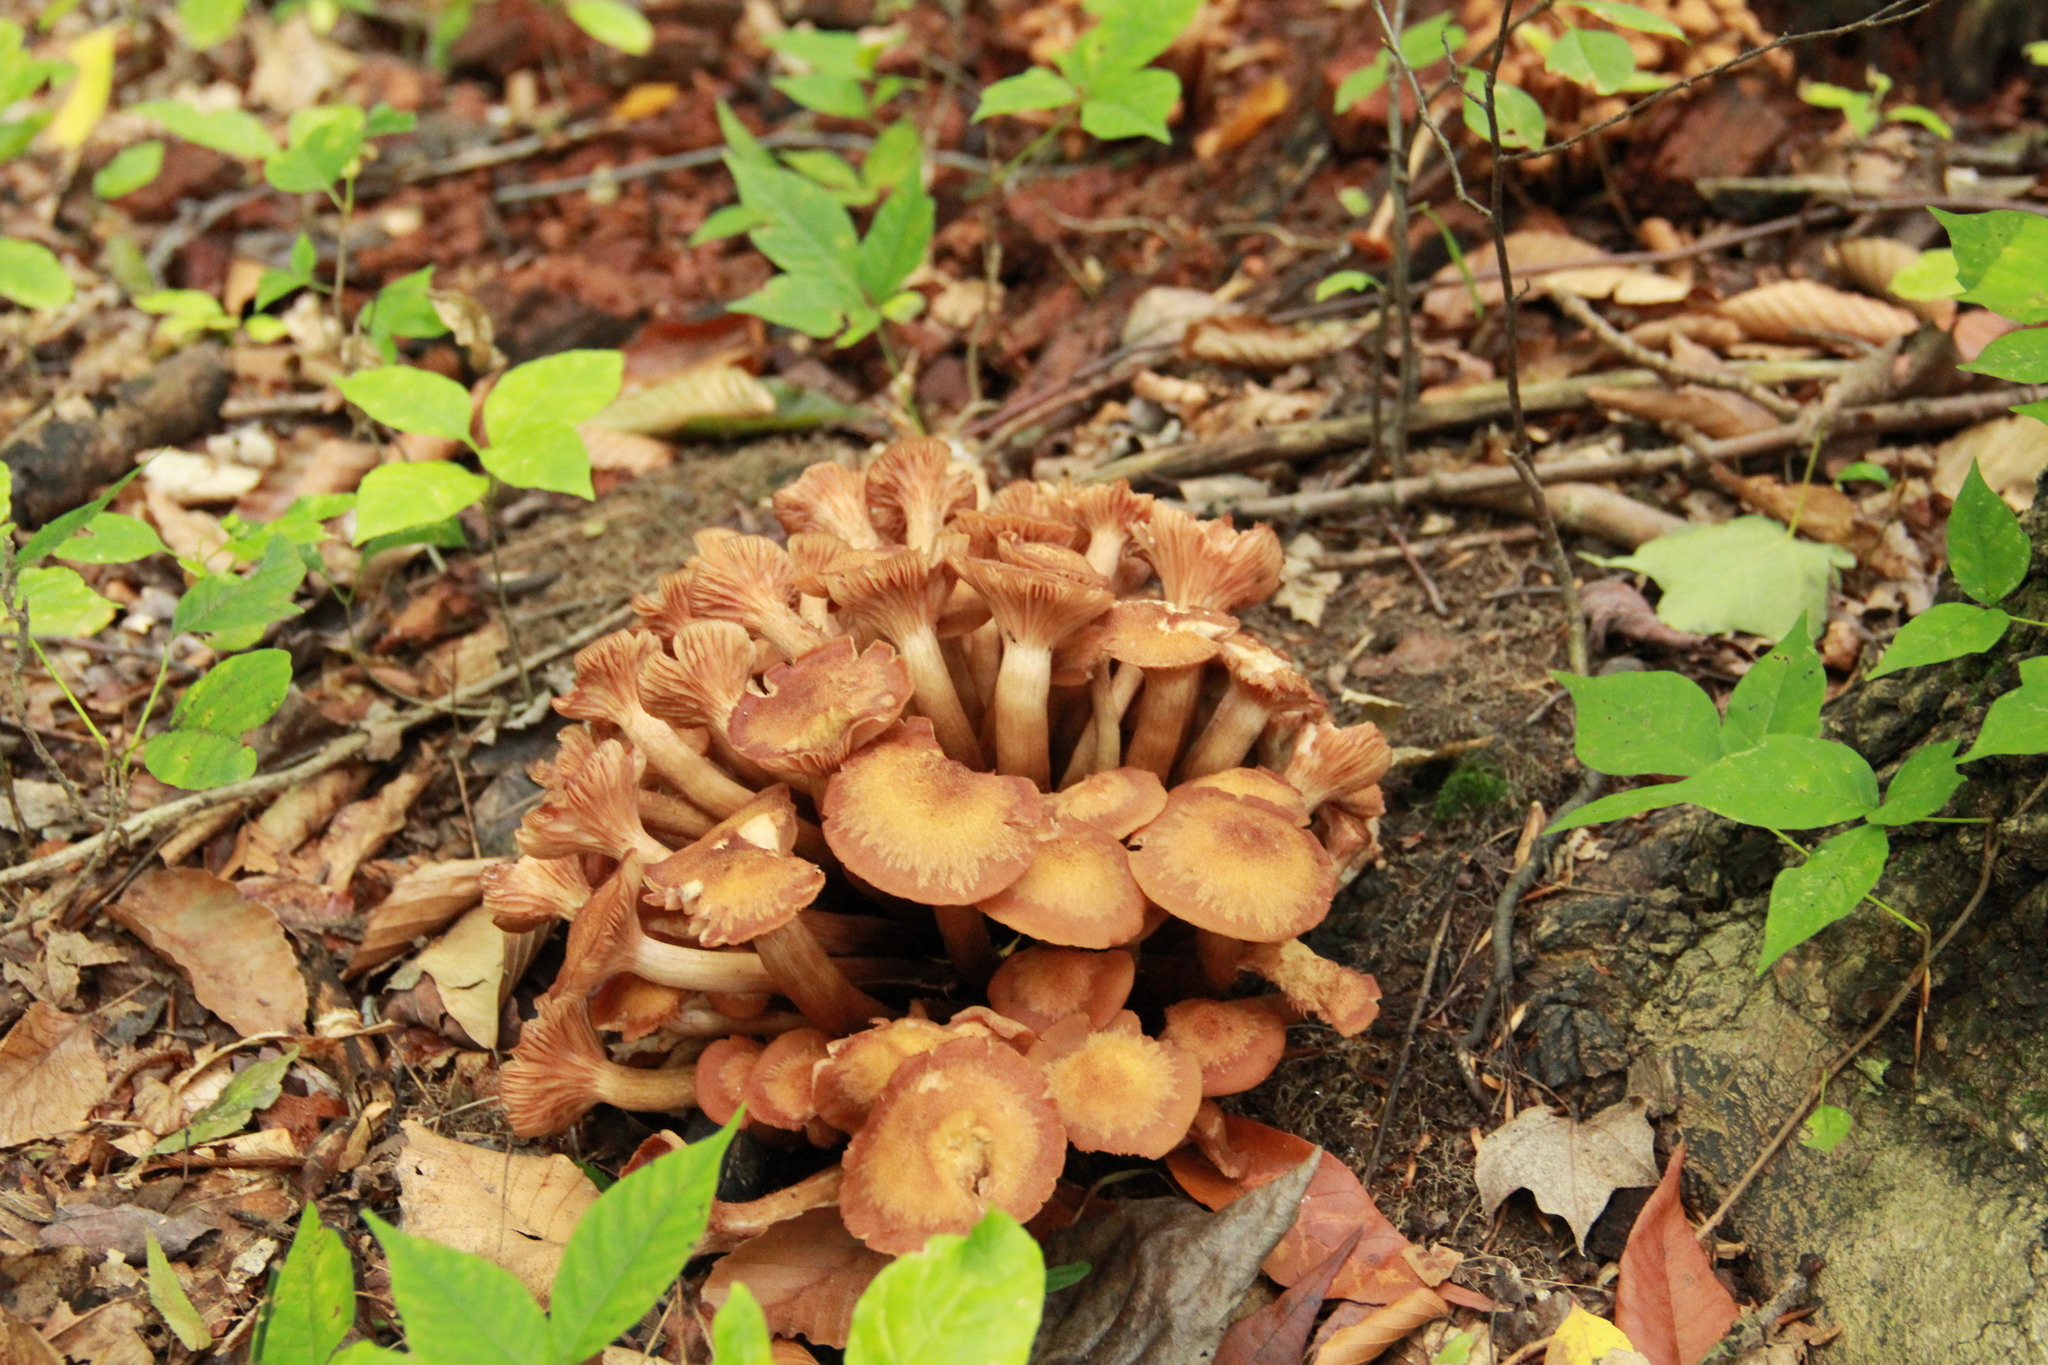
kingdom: Fungi
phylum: Basidiomycota
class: Agaricomycetes
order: Agaricales
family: Physalacriaceae
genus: Desarmillaria
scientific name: Desarmillaria caespitosa
